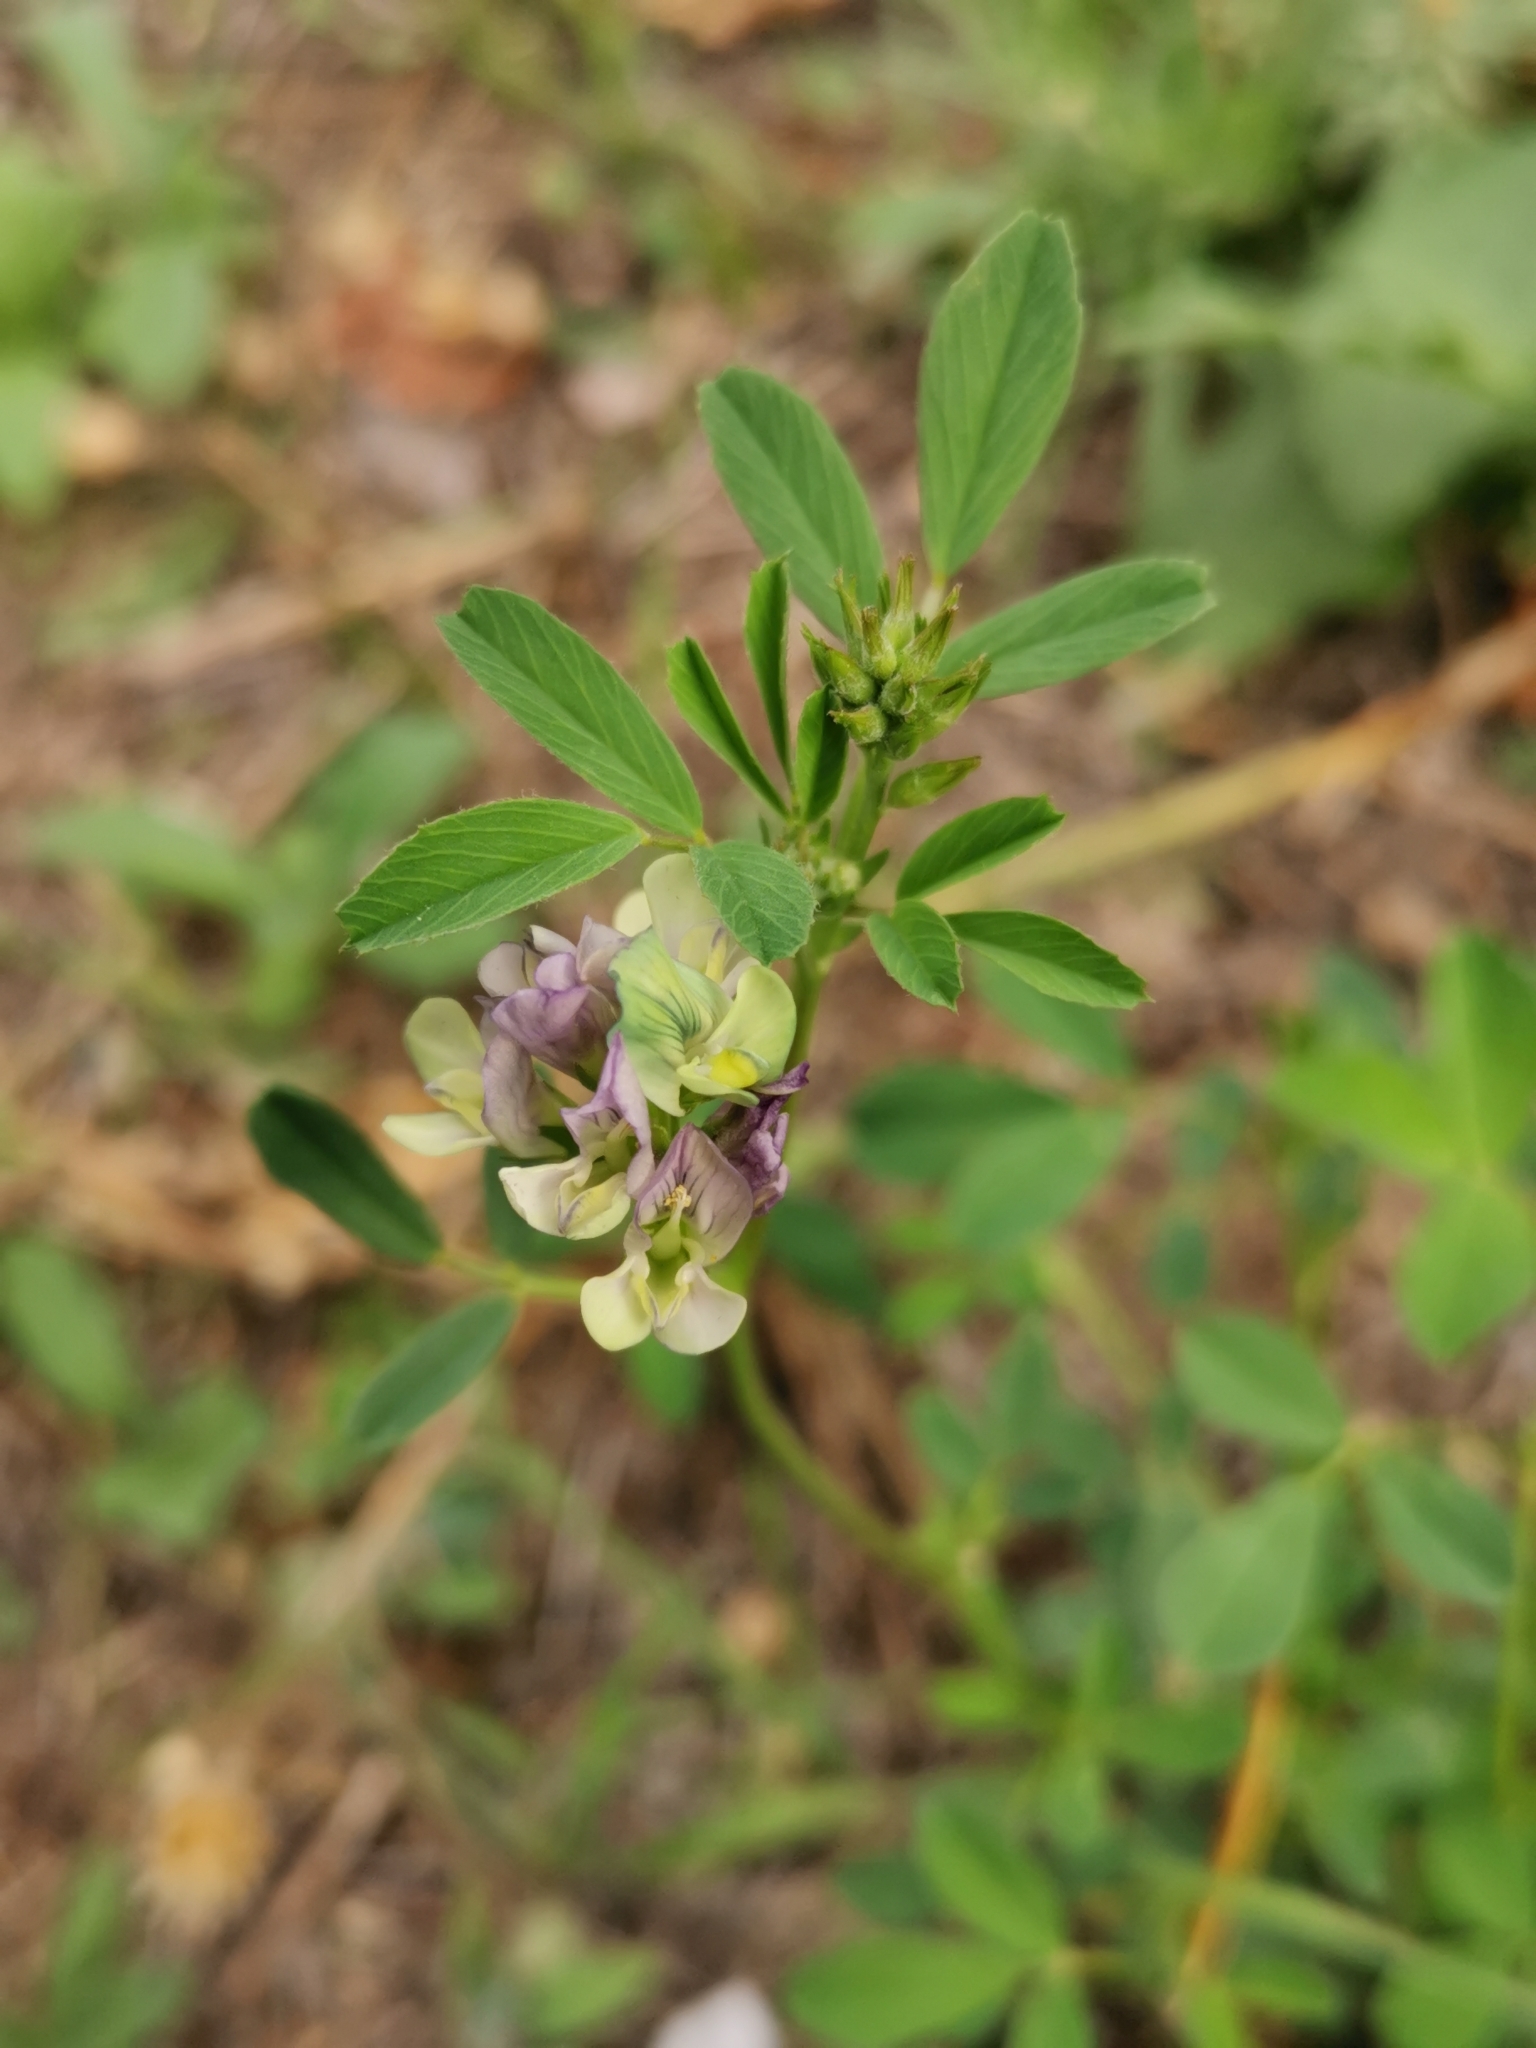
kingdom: Plantae
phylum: Tracheophyta
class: Magnoliopsida
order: Fabales
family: Fabaceae
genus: Medicago
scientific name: Medicago varia
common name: Sand lucerne
